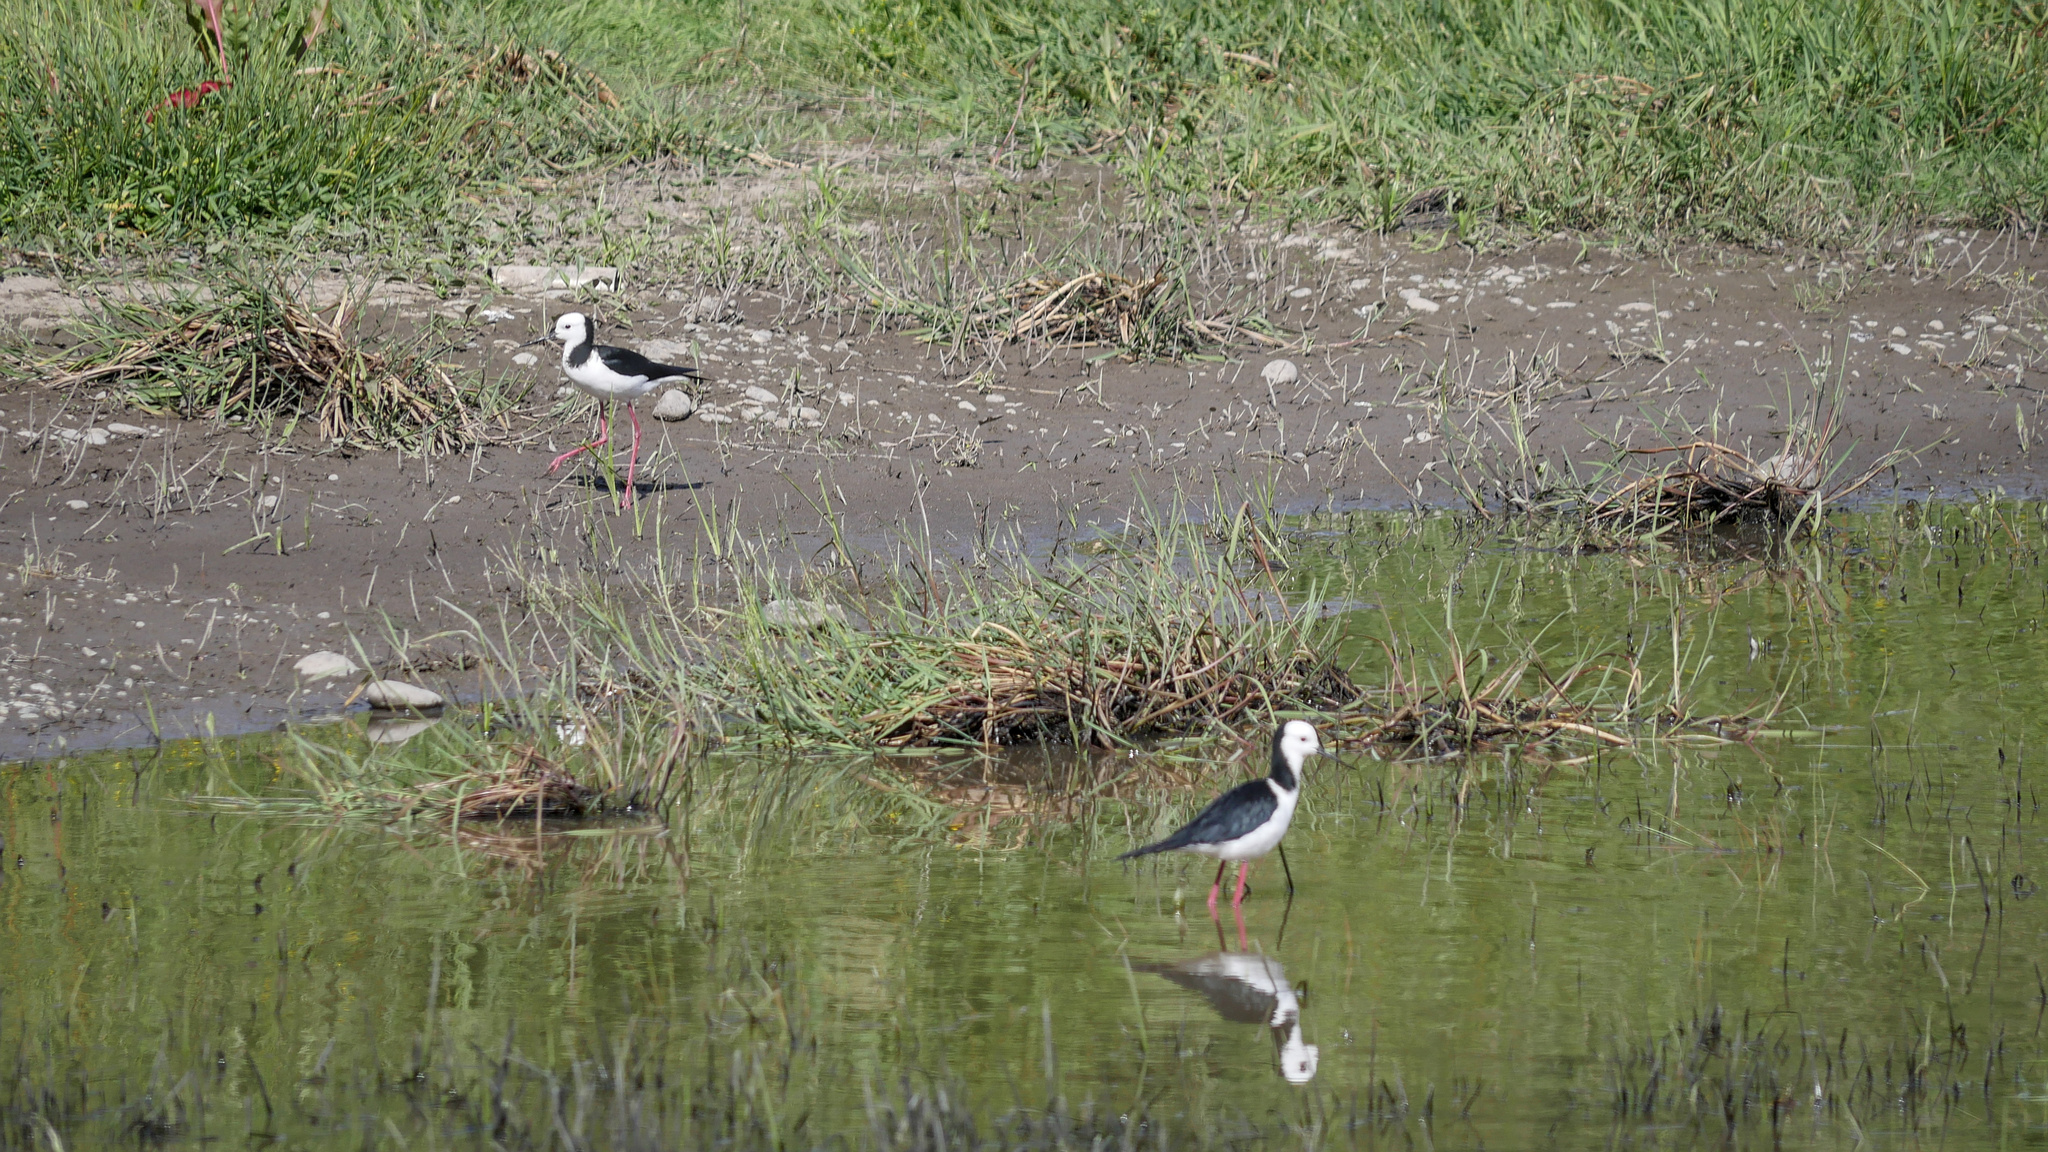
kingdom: Animalia
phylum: Chordata
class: Aves
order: Charadriiformes
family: Recurvirostridae
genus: Himantopus
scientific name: Himantopus leucocephalus
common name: White-headed stilt
